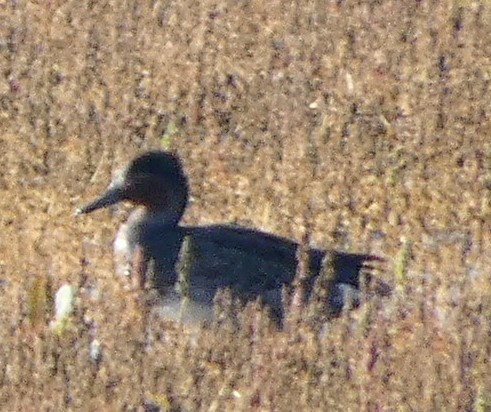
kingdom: Animalia
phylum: Chordata
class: Aves
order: Anseriformes
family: Anatidae
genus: Anas
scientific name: Anas crecca
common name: Eurasian teal
